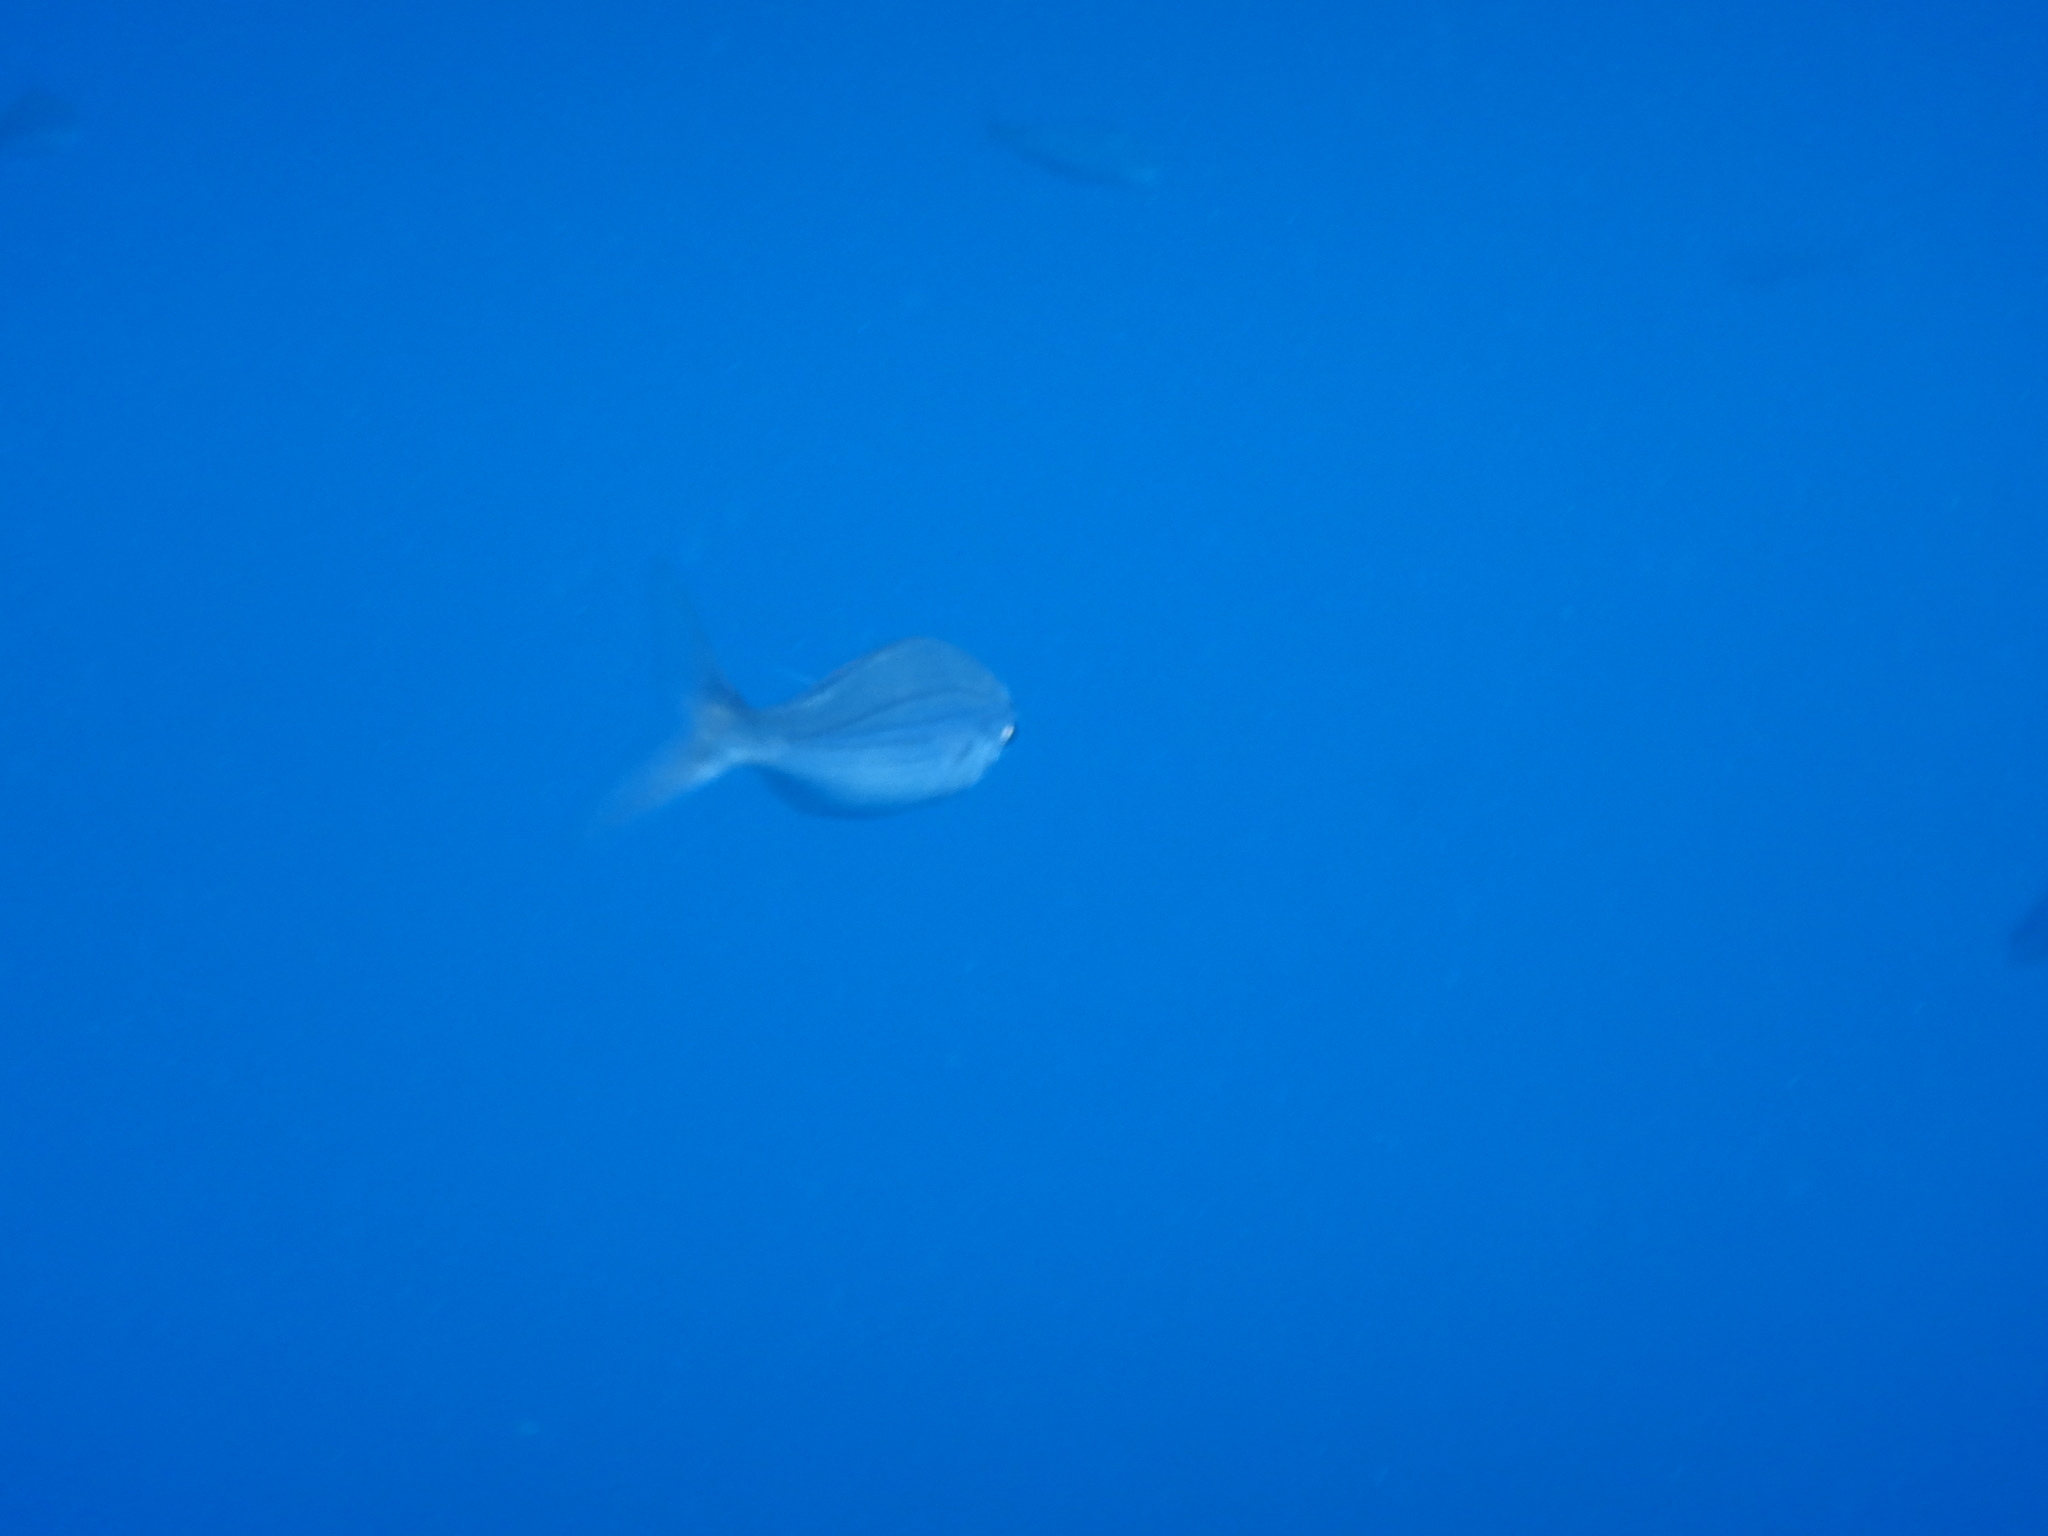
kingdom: Animalia
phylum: Chordata
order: Perciformes
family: Sparidae
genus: Boops
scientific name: Boops boops
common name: Bogue
